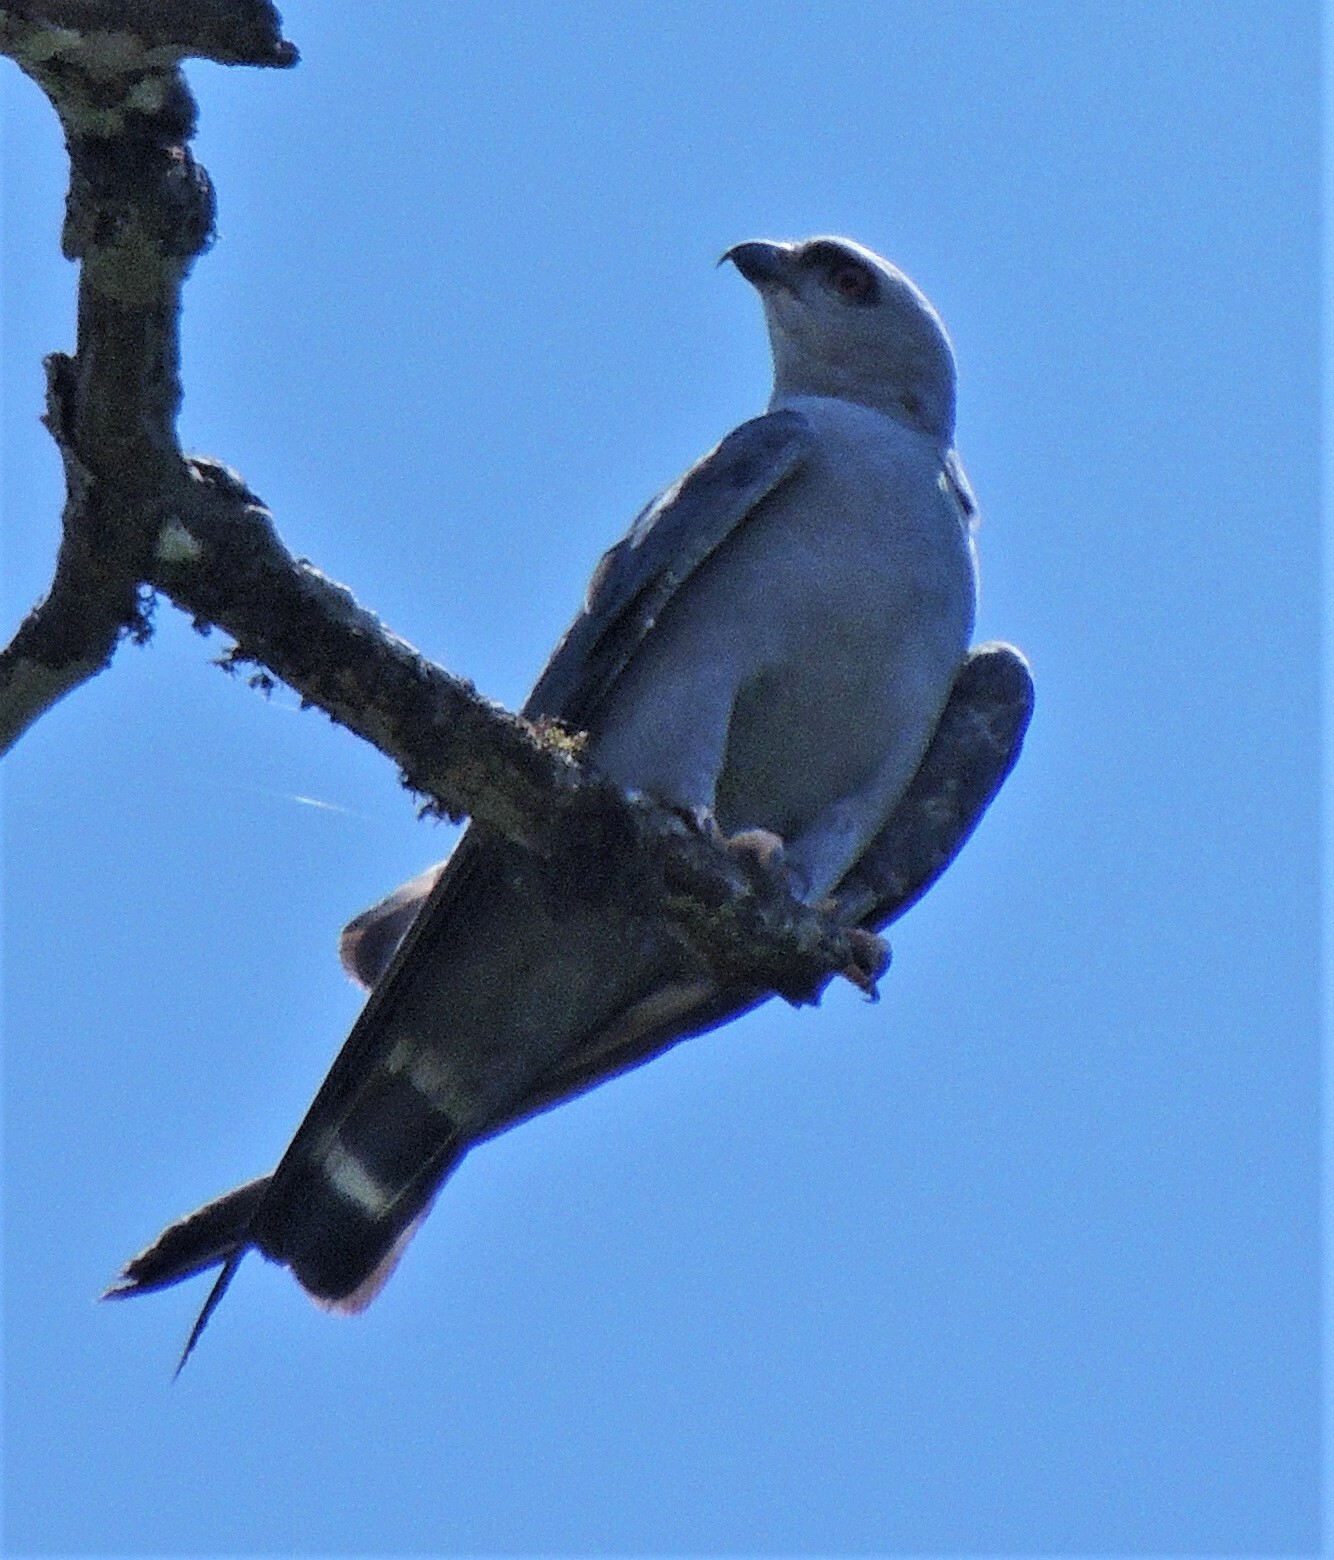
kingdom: Animalia
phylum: Chordata
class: Aves
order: Accipitriformes
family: Accipitridae
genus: Ictinia
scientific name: Ictinia plumbea
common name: Plumbeous kite
